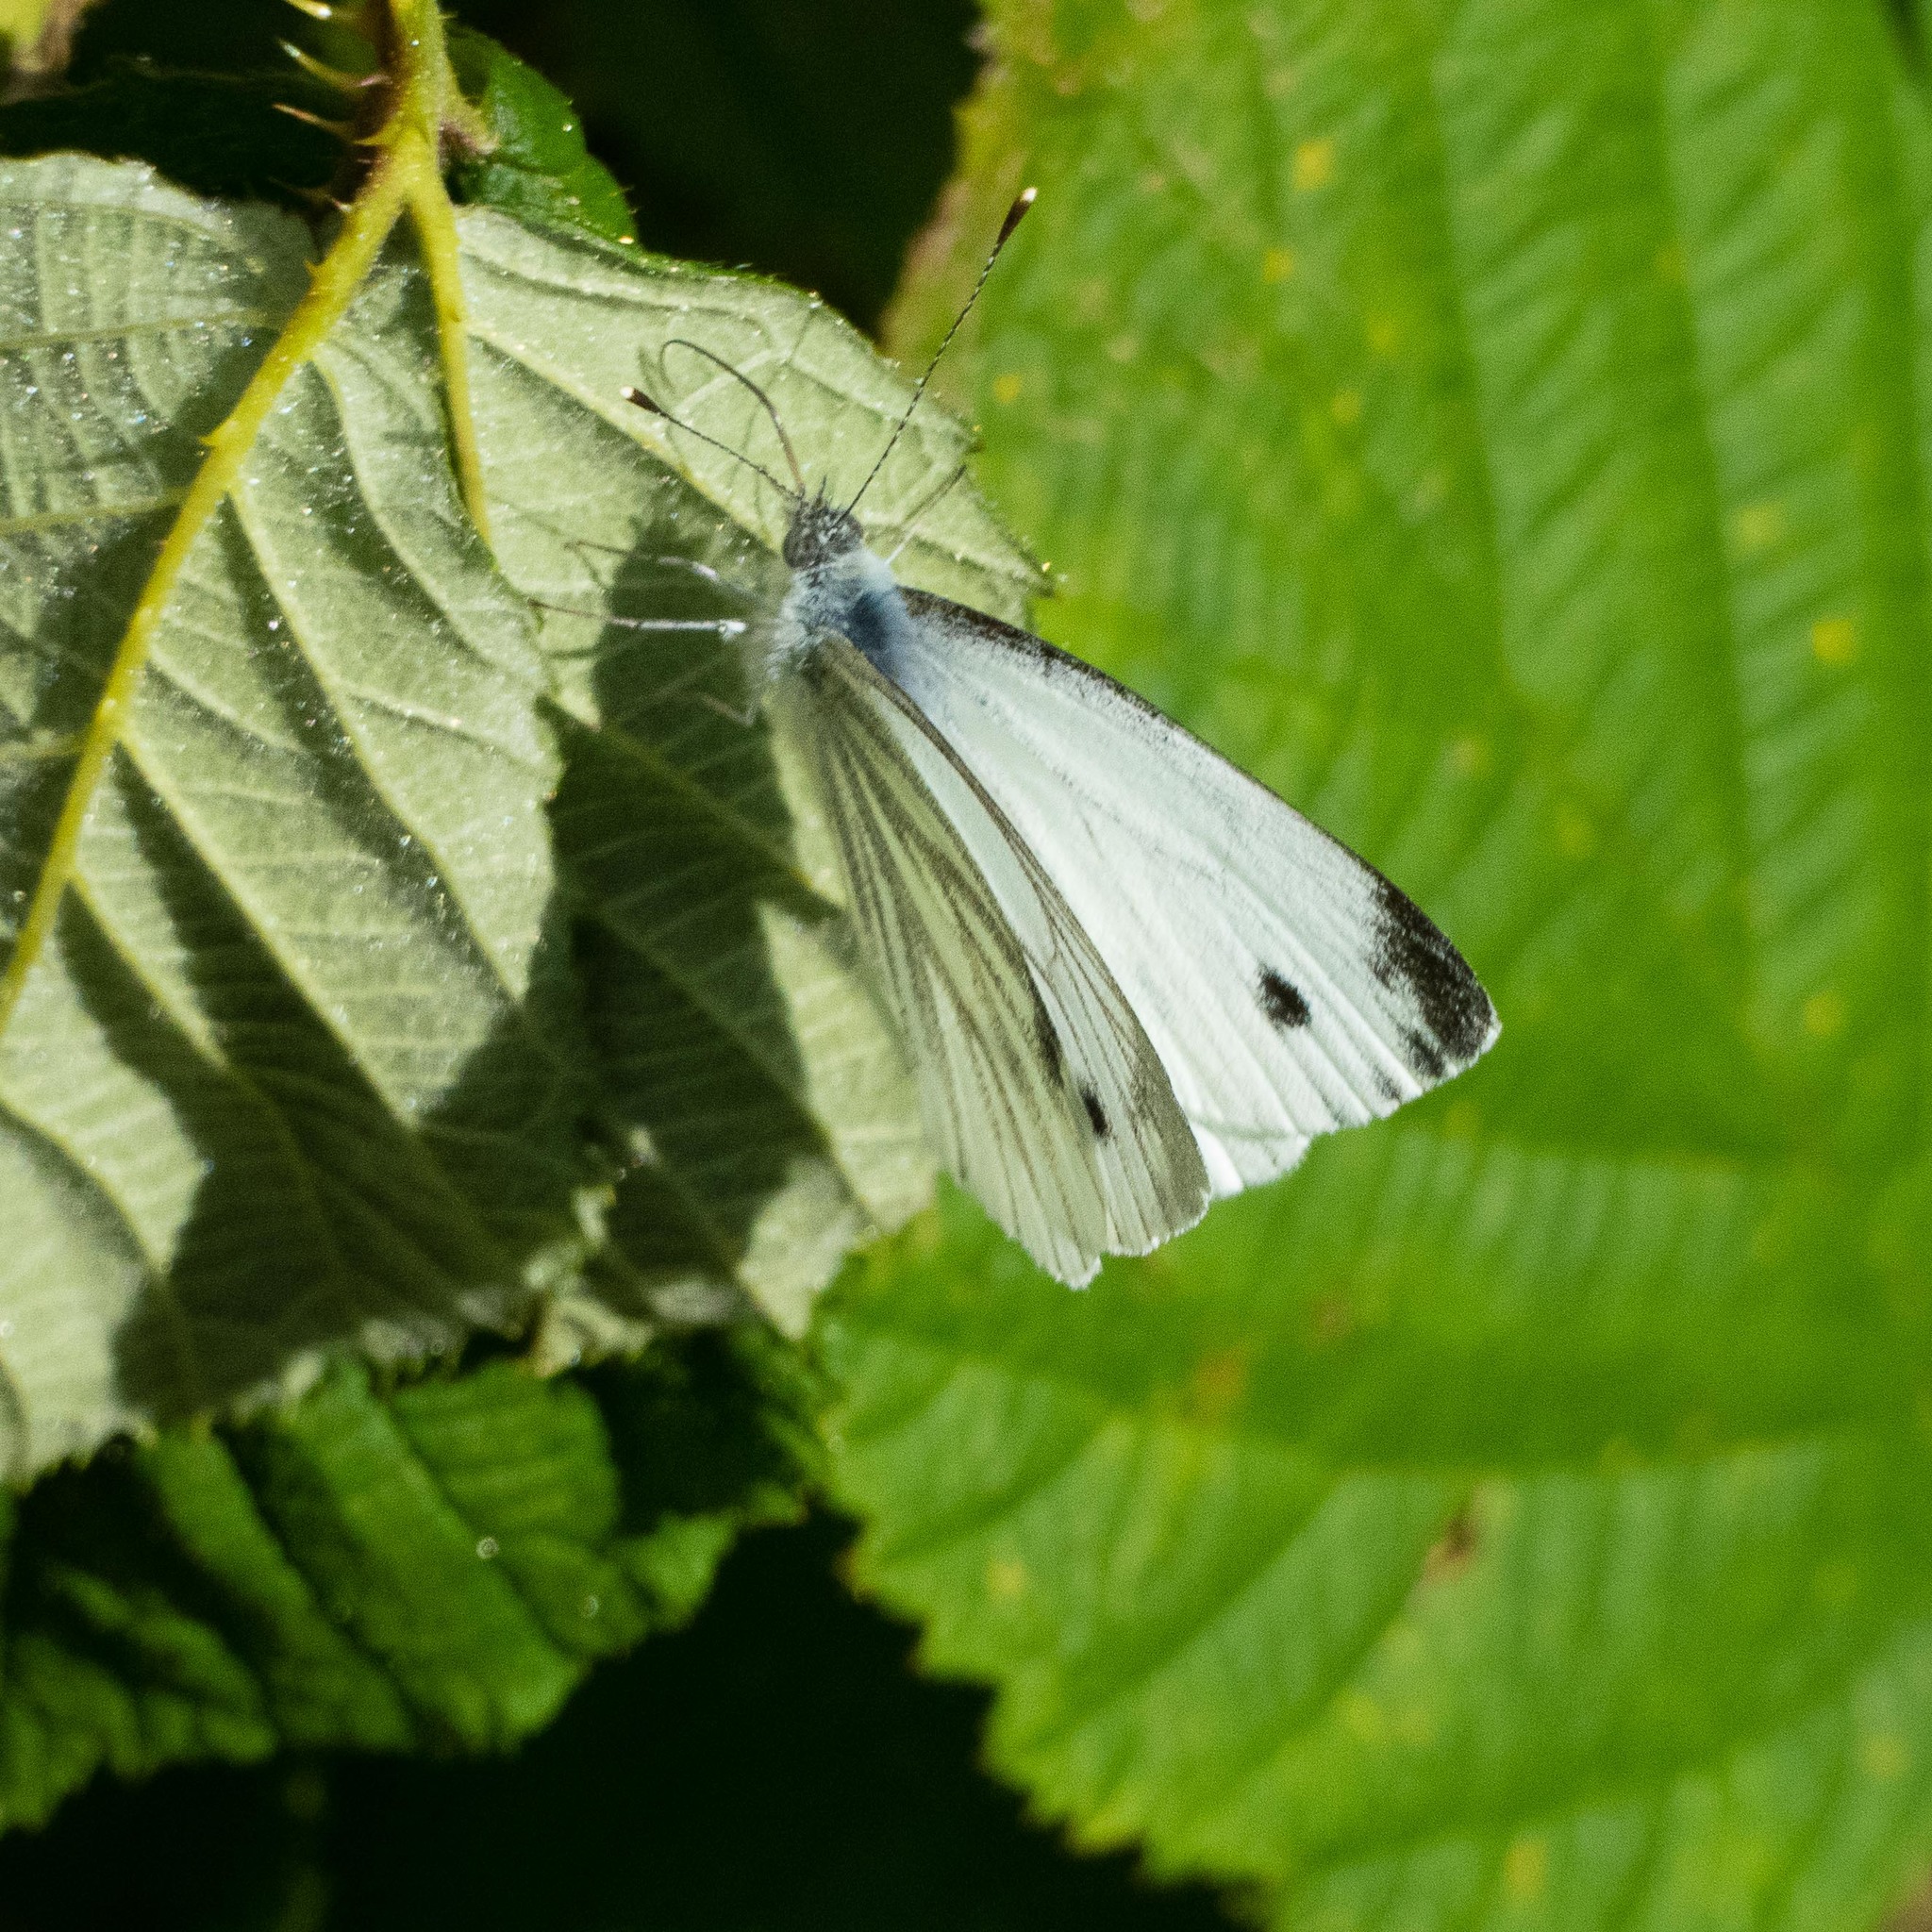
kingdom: Animalia
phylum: Arthropoda
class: Insecta
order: Lepidoptera
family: Pieridae
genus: Pieris
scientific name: Pieris napi
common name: Green-veined white
